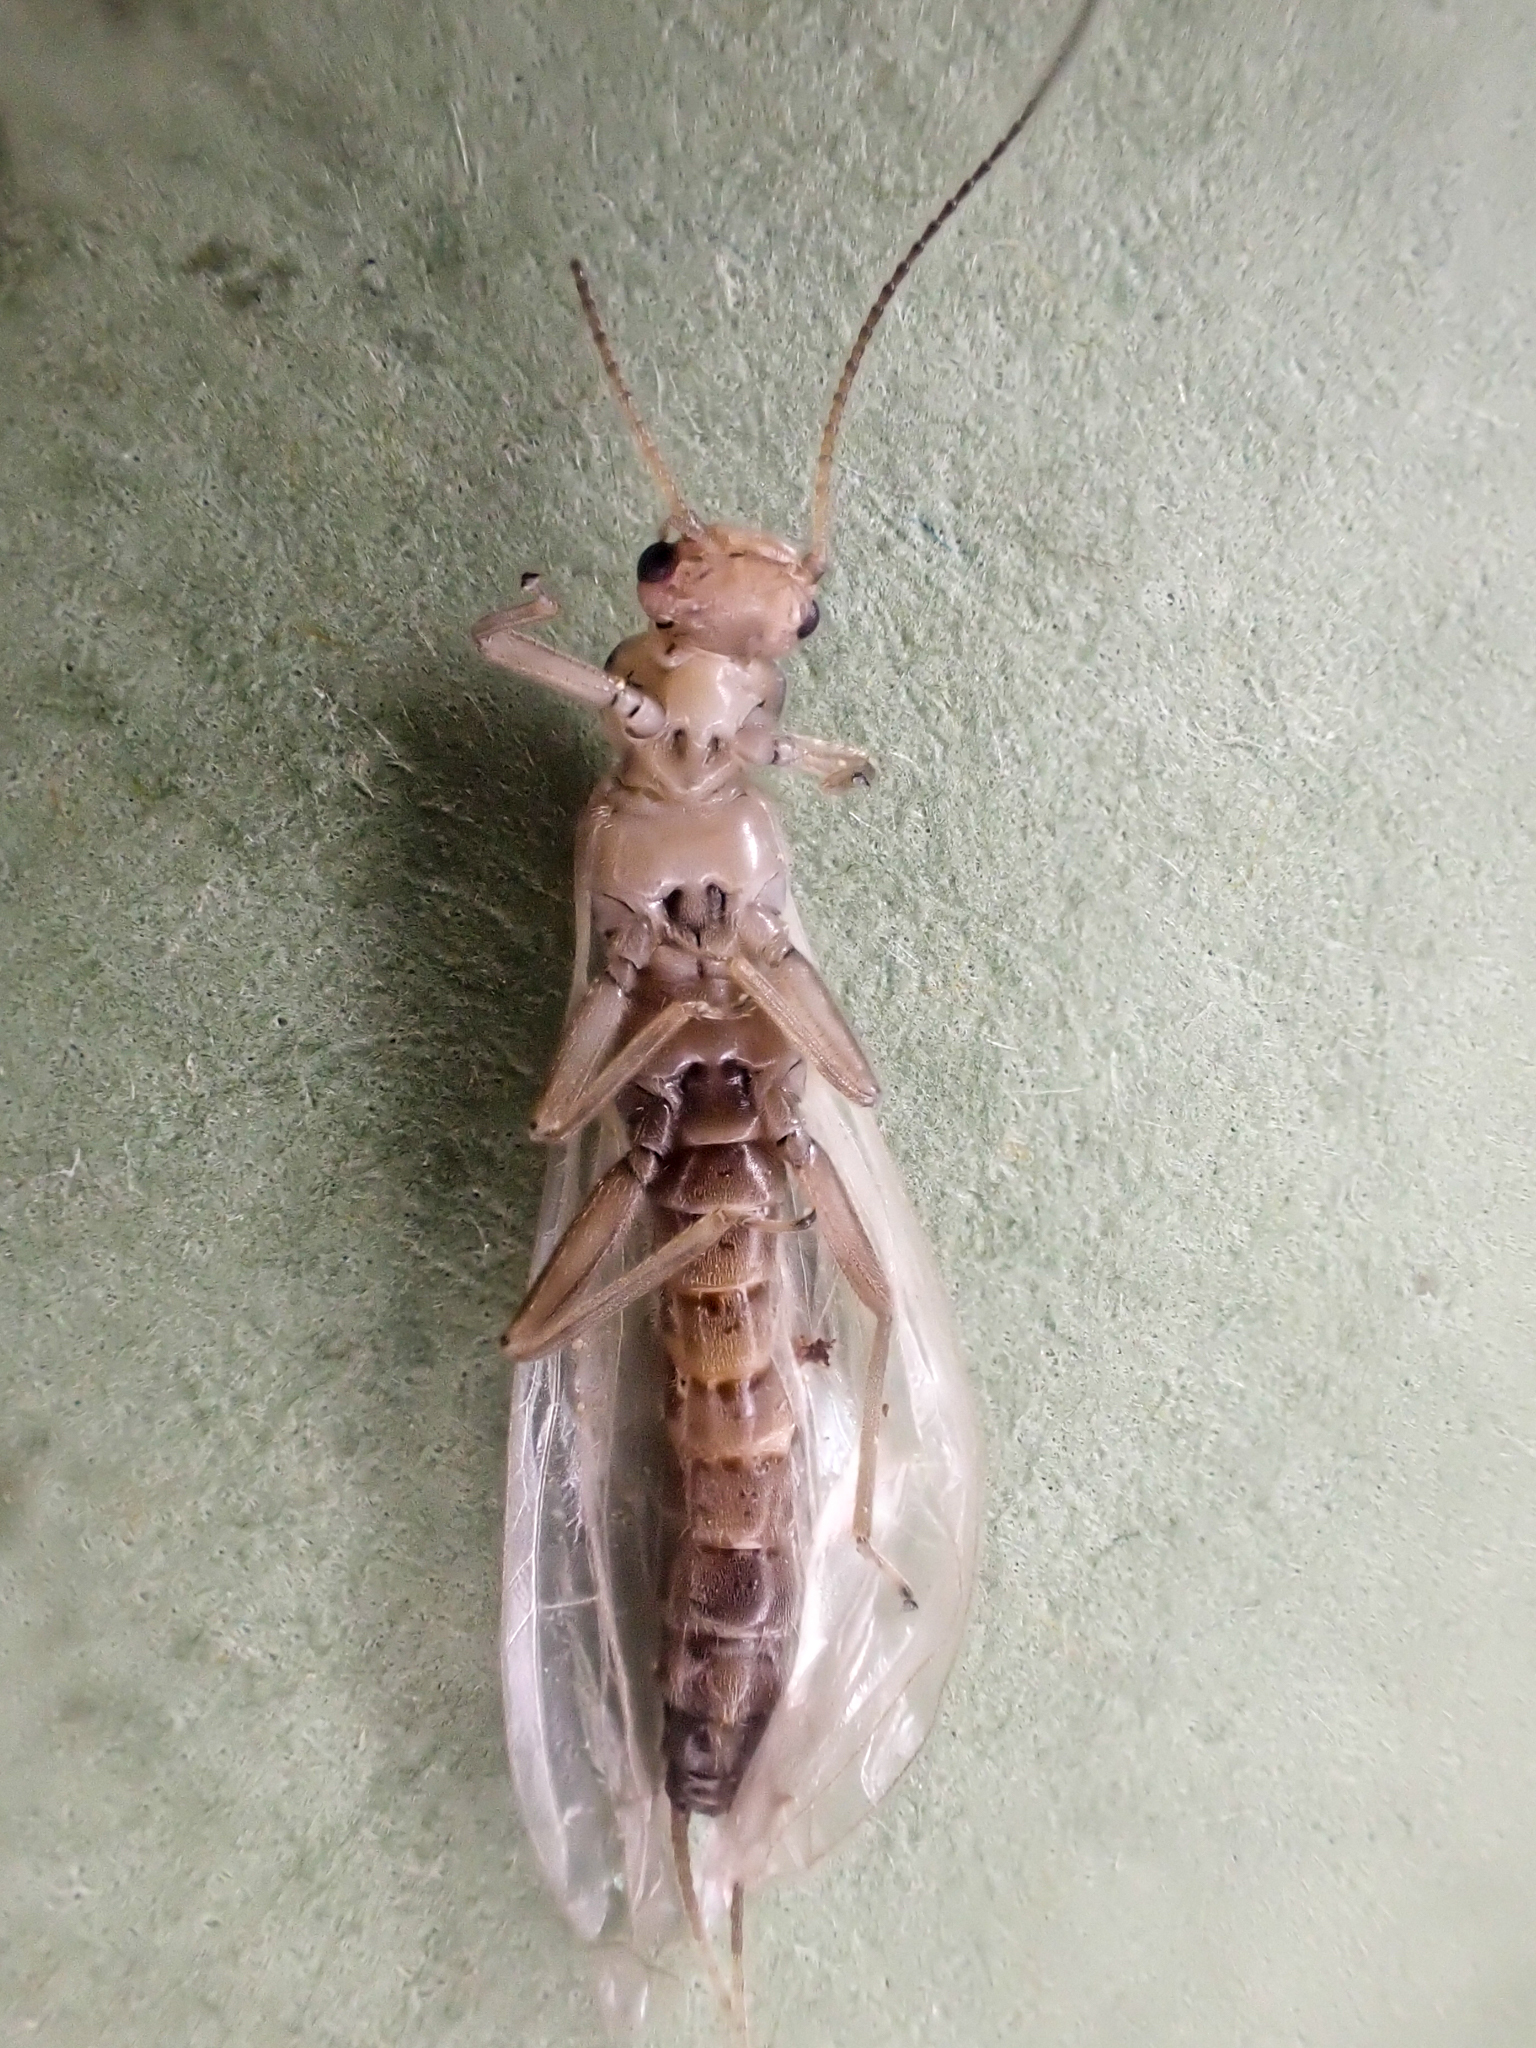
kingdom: Animalia
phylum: Arthropoda
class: Insecta
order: Plecoptera
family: Chloroperlidae
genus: Sweltsa
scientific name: Sweltsa fidelis
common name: Mountain sallfly
